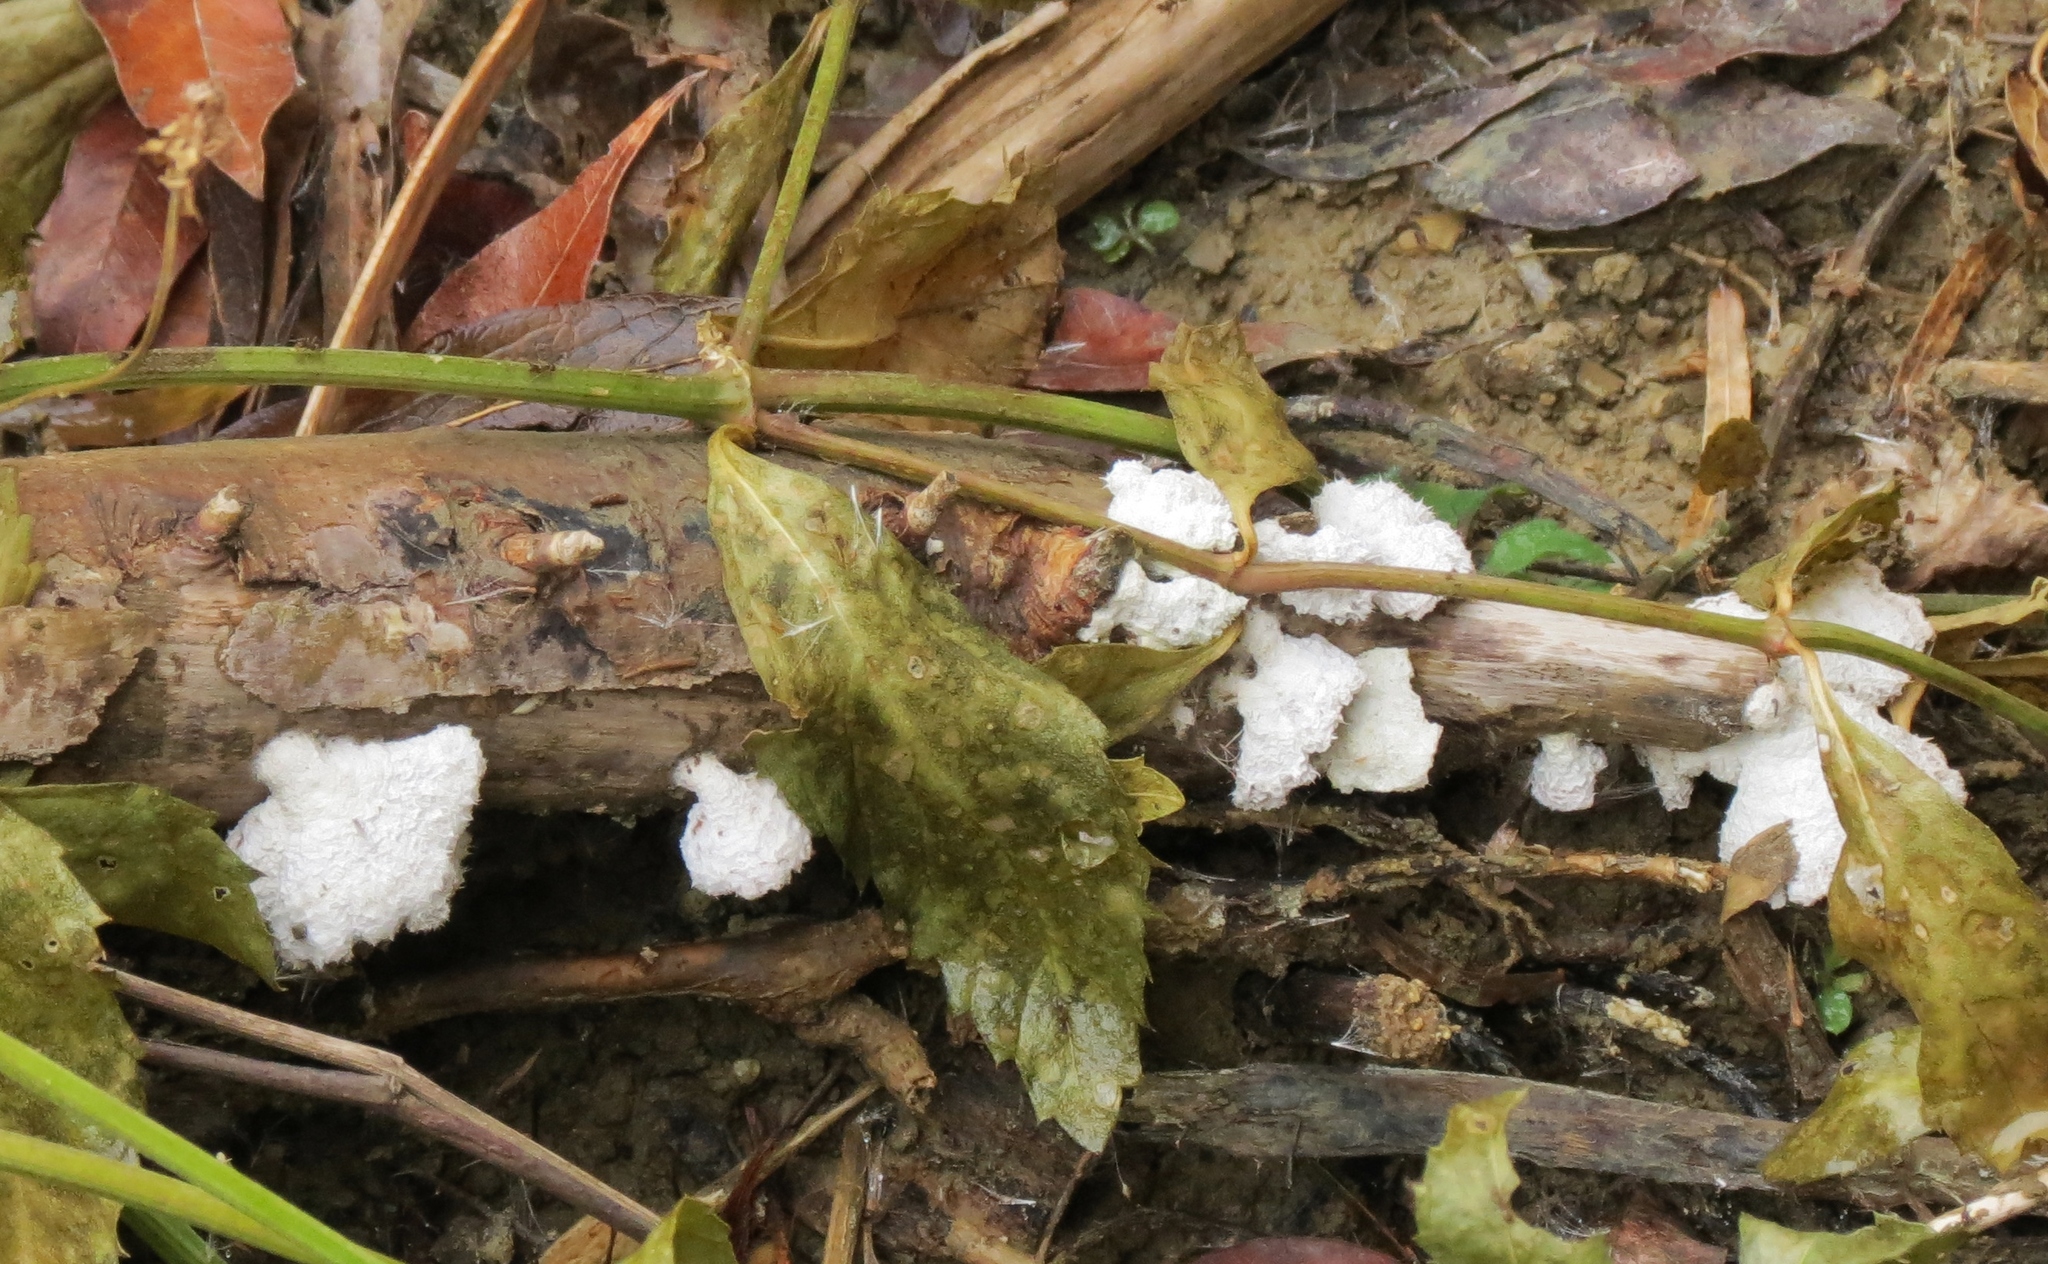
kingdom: Fungi
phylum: Basidiomycota
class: Agaricomycetes
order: Agaricales
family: Schizophyllaceae
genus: Schizophyllum
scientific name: Schizophyllum commune
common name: Common porecrust
